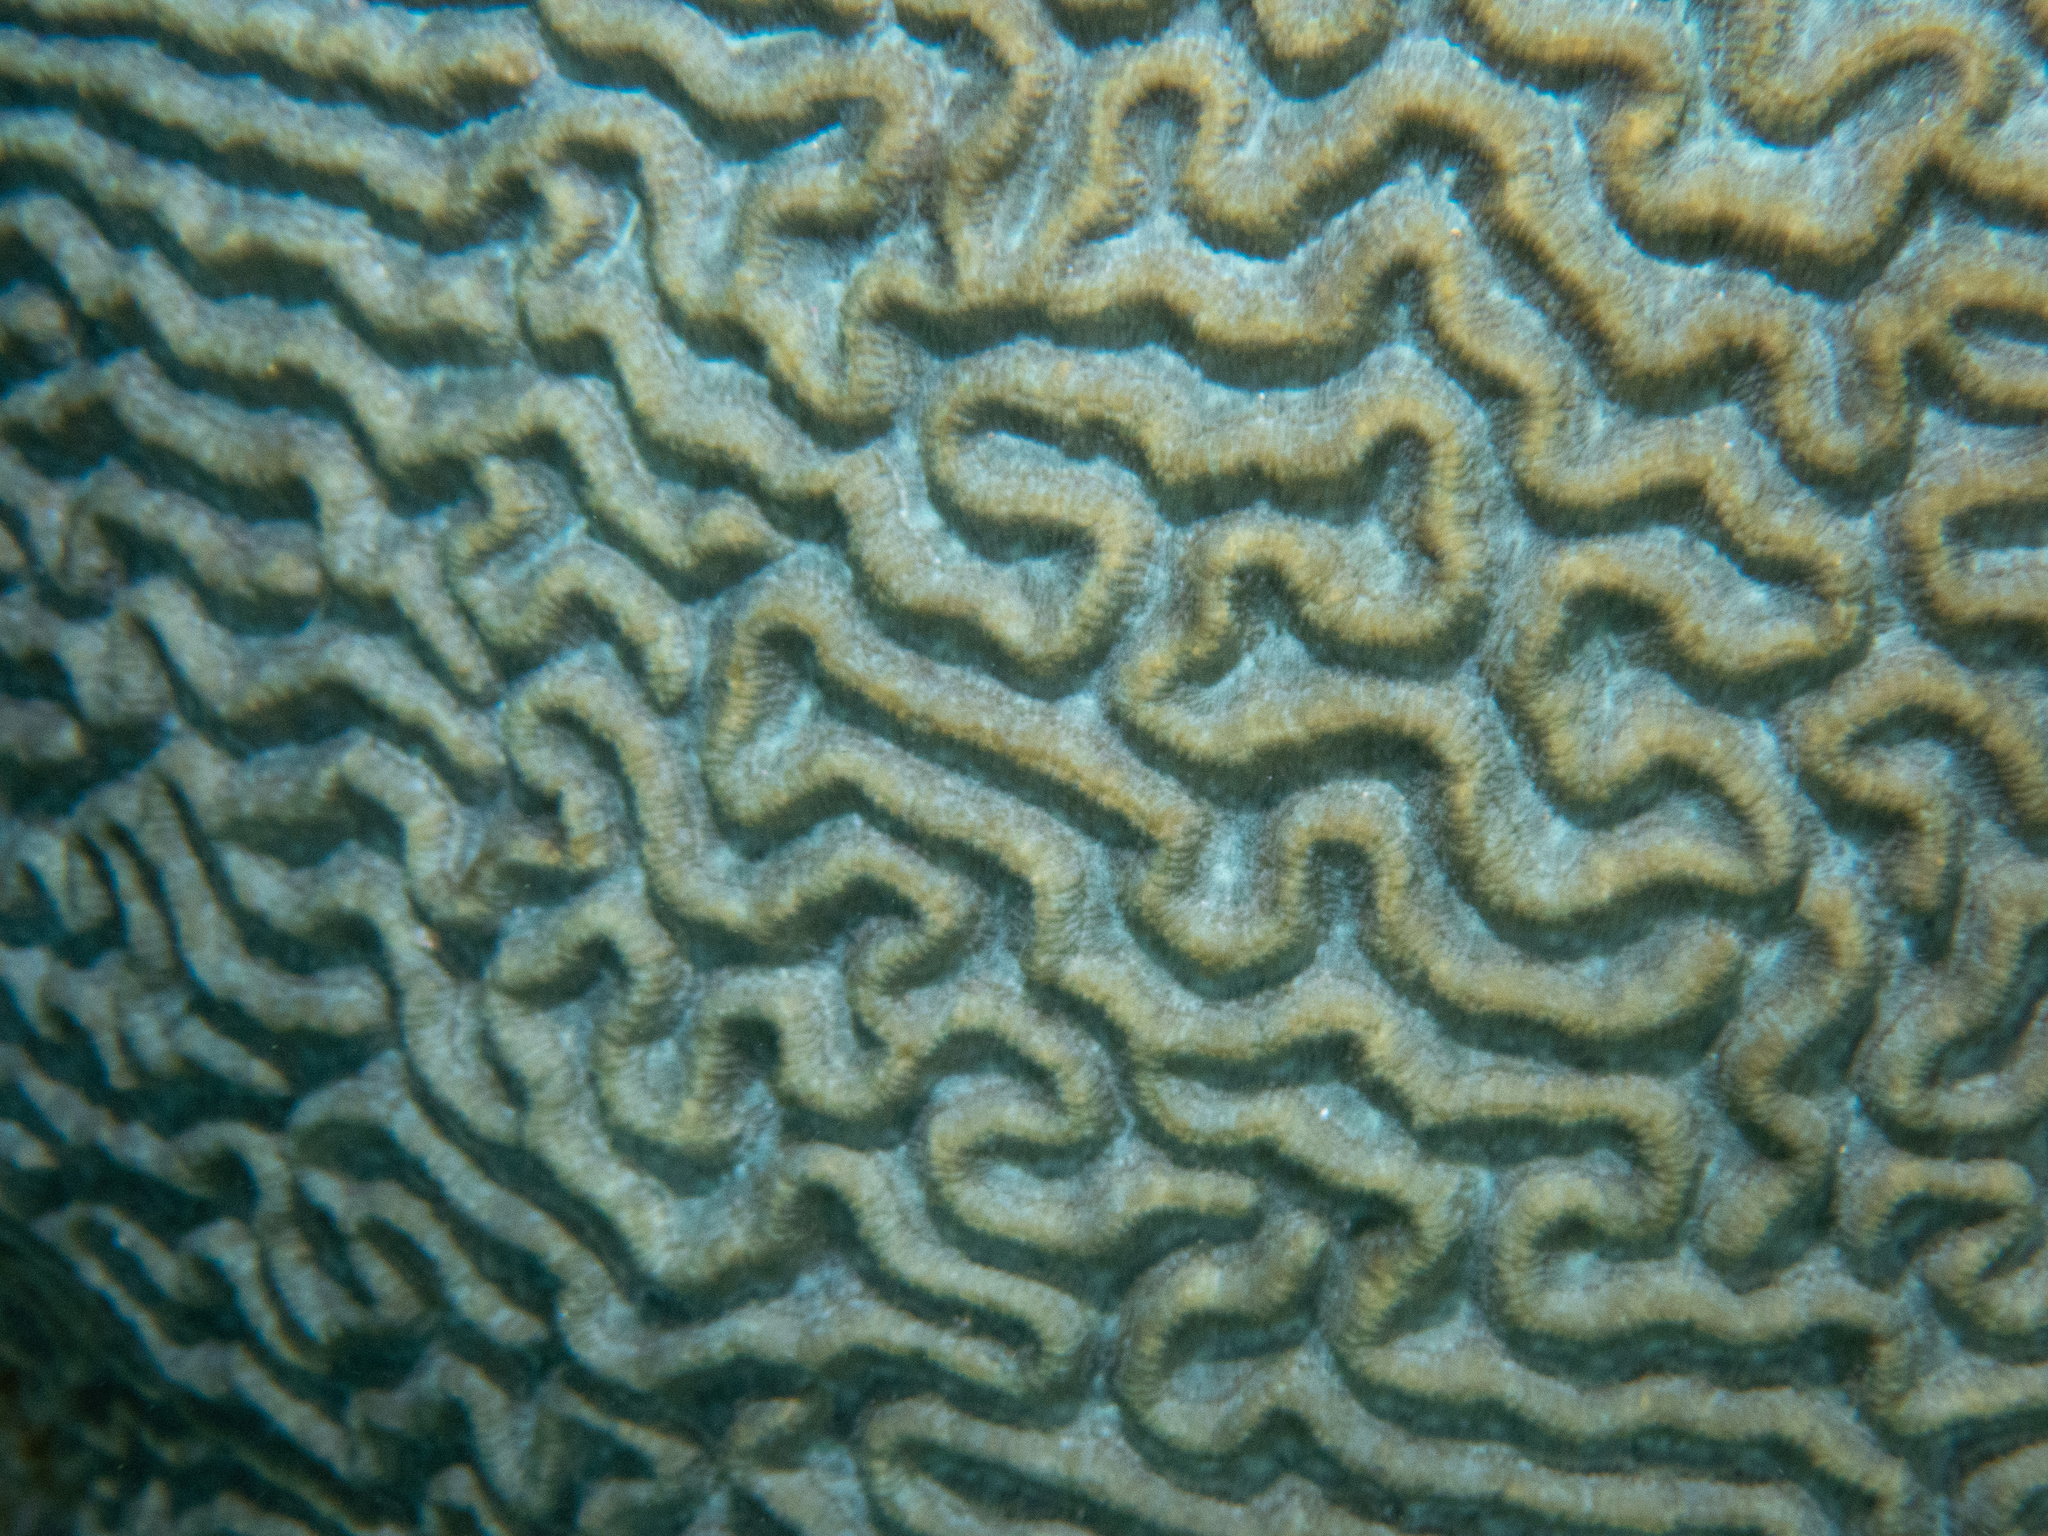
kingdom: Animalia
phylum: Cnidaria
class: Anthozoa
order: Scleractinia
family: Faviidae
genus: Pseudodiploria
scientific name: Pseudodiploria strigosa
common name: Symmetrical brain coral
